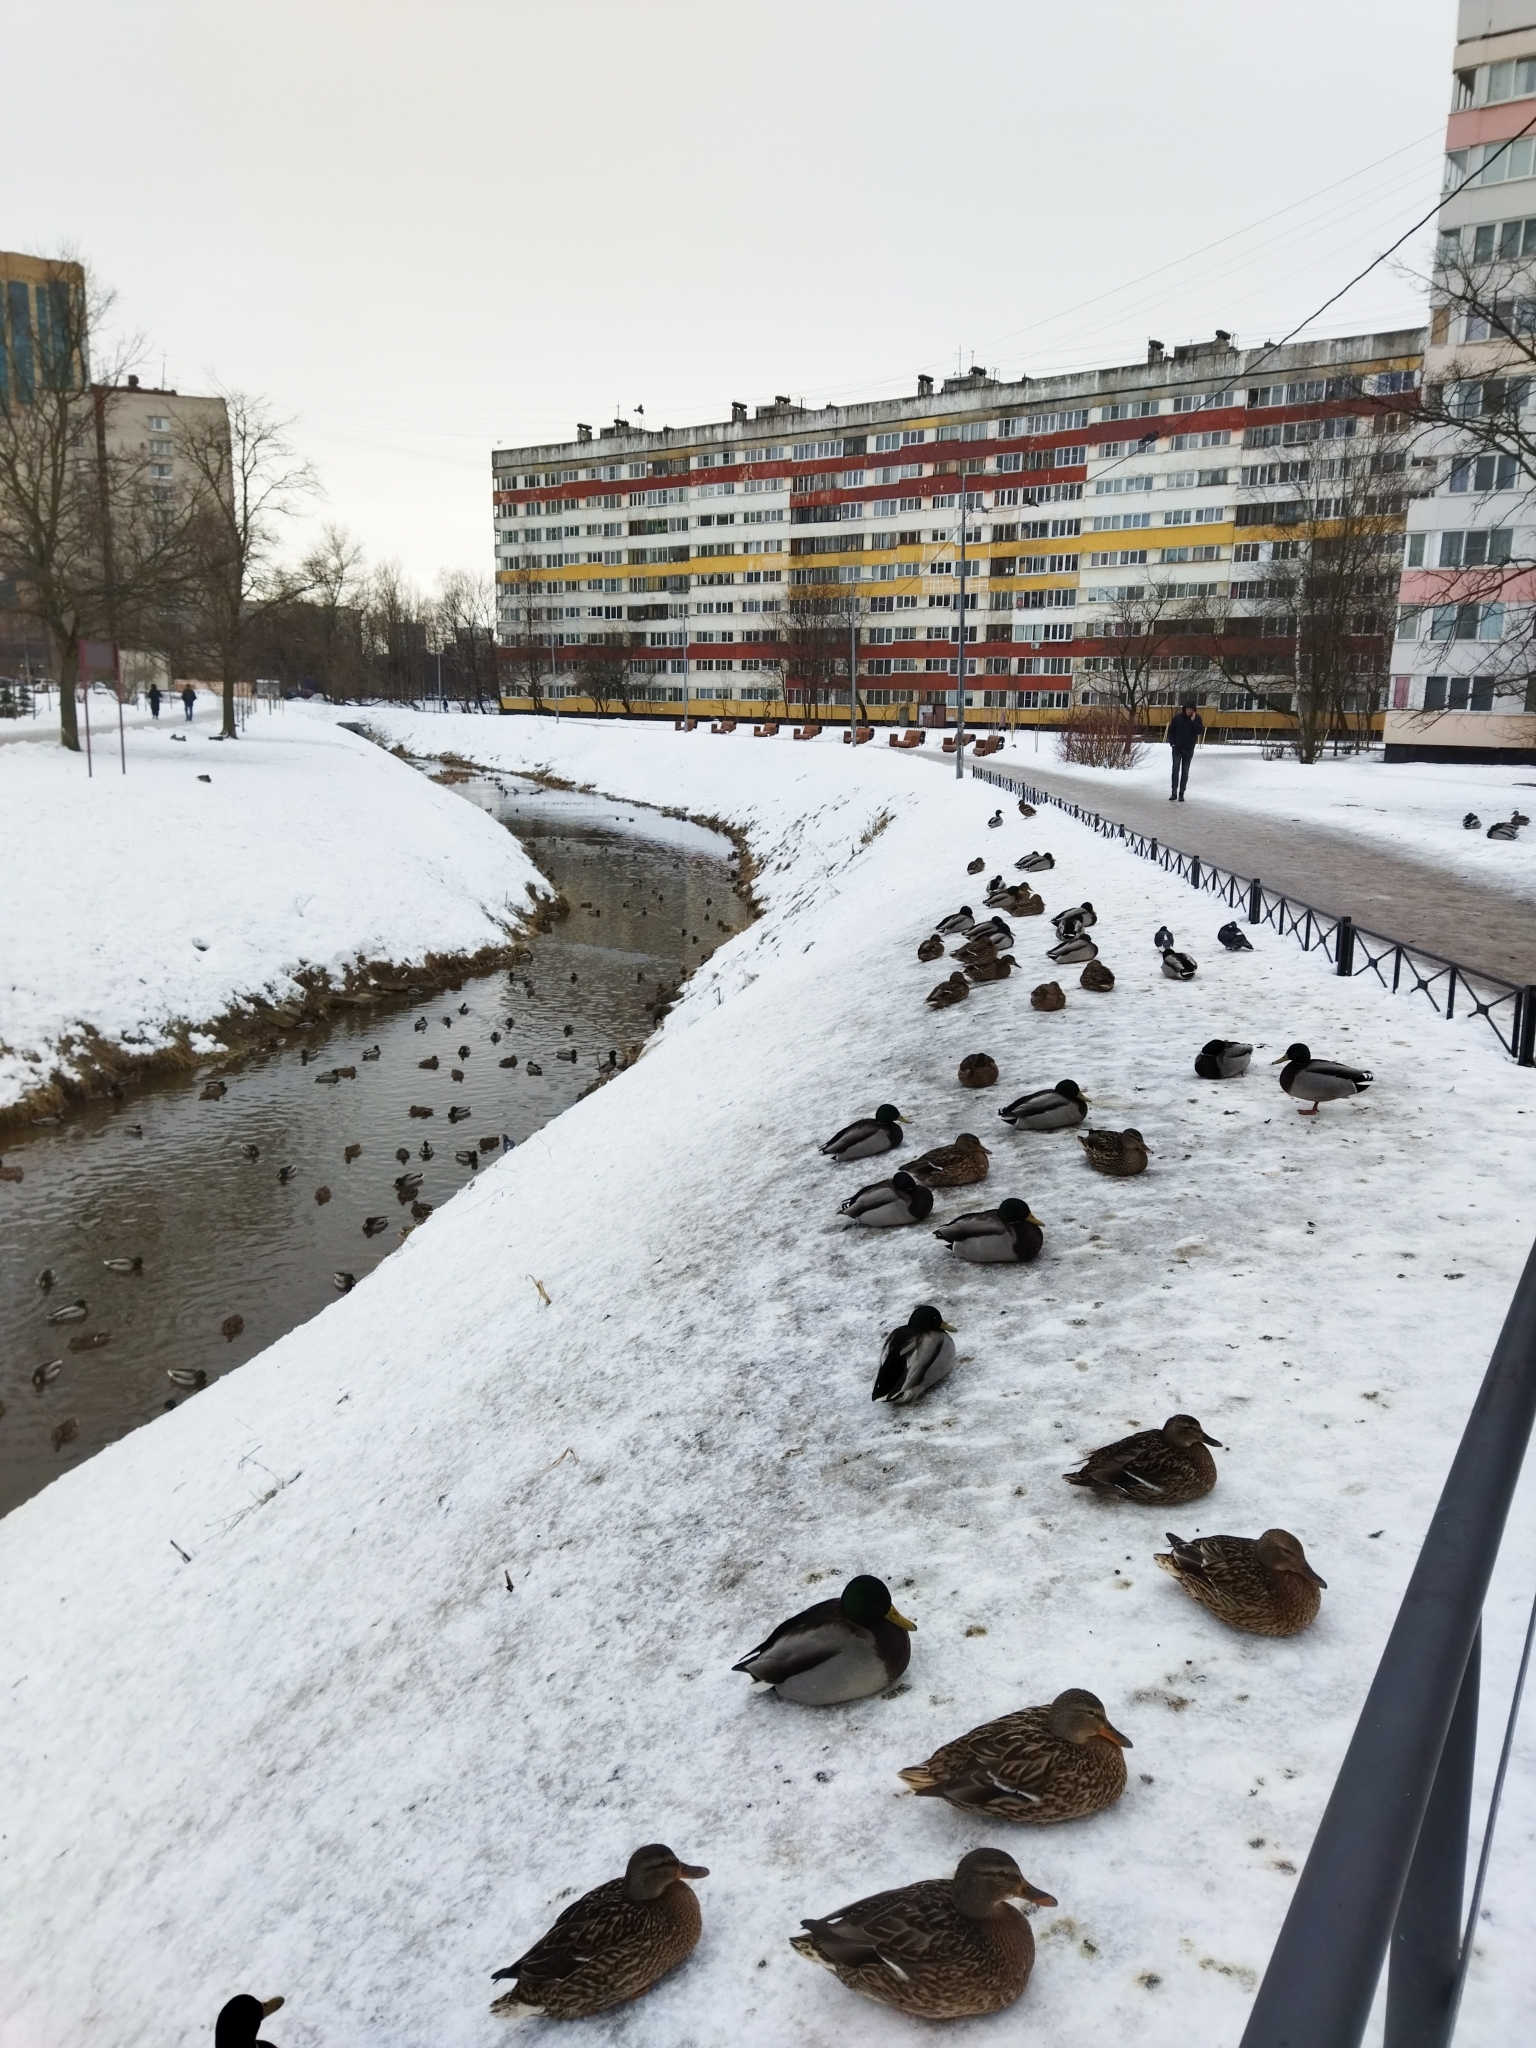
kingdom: Animalia
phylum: Chordata
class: Aves
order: Anseriformes
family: Anatidae
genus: Anas
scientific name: Anas platyrhynchos
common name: Mallard
